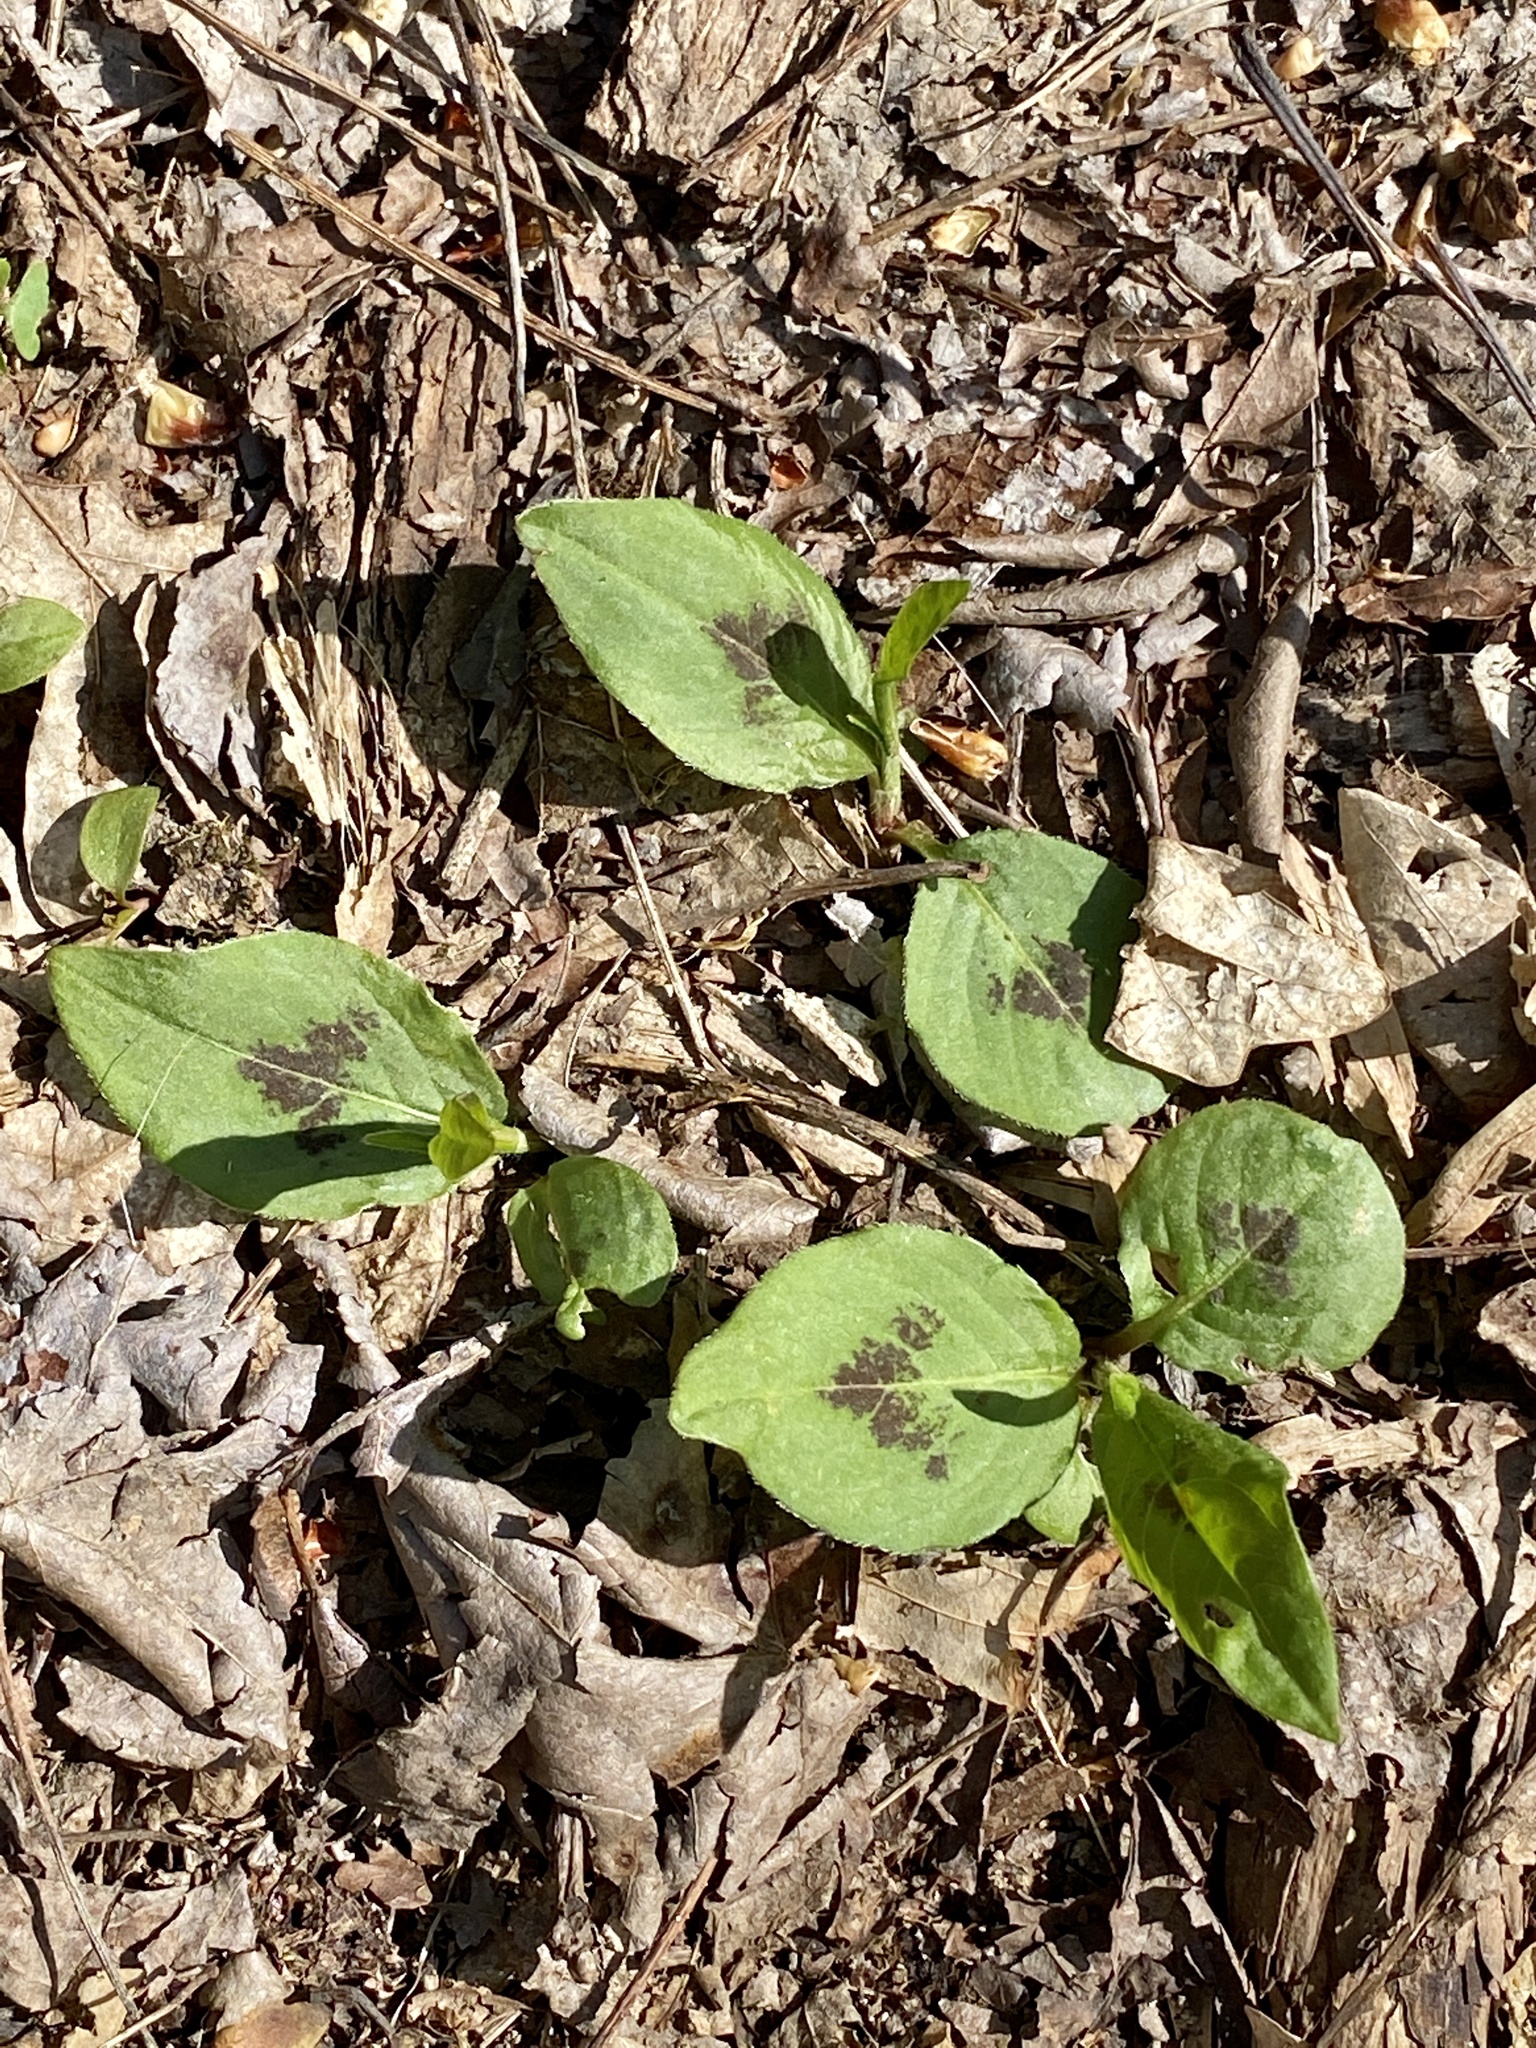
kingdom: Plantae
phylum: Tracheophyta
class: Magnoliopsida
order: Caryophyllales
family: Polygonaceae
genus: Persicaria
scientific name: Persicaria virginiana
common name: Jumpseed
